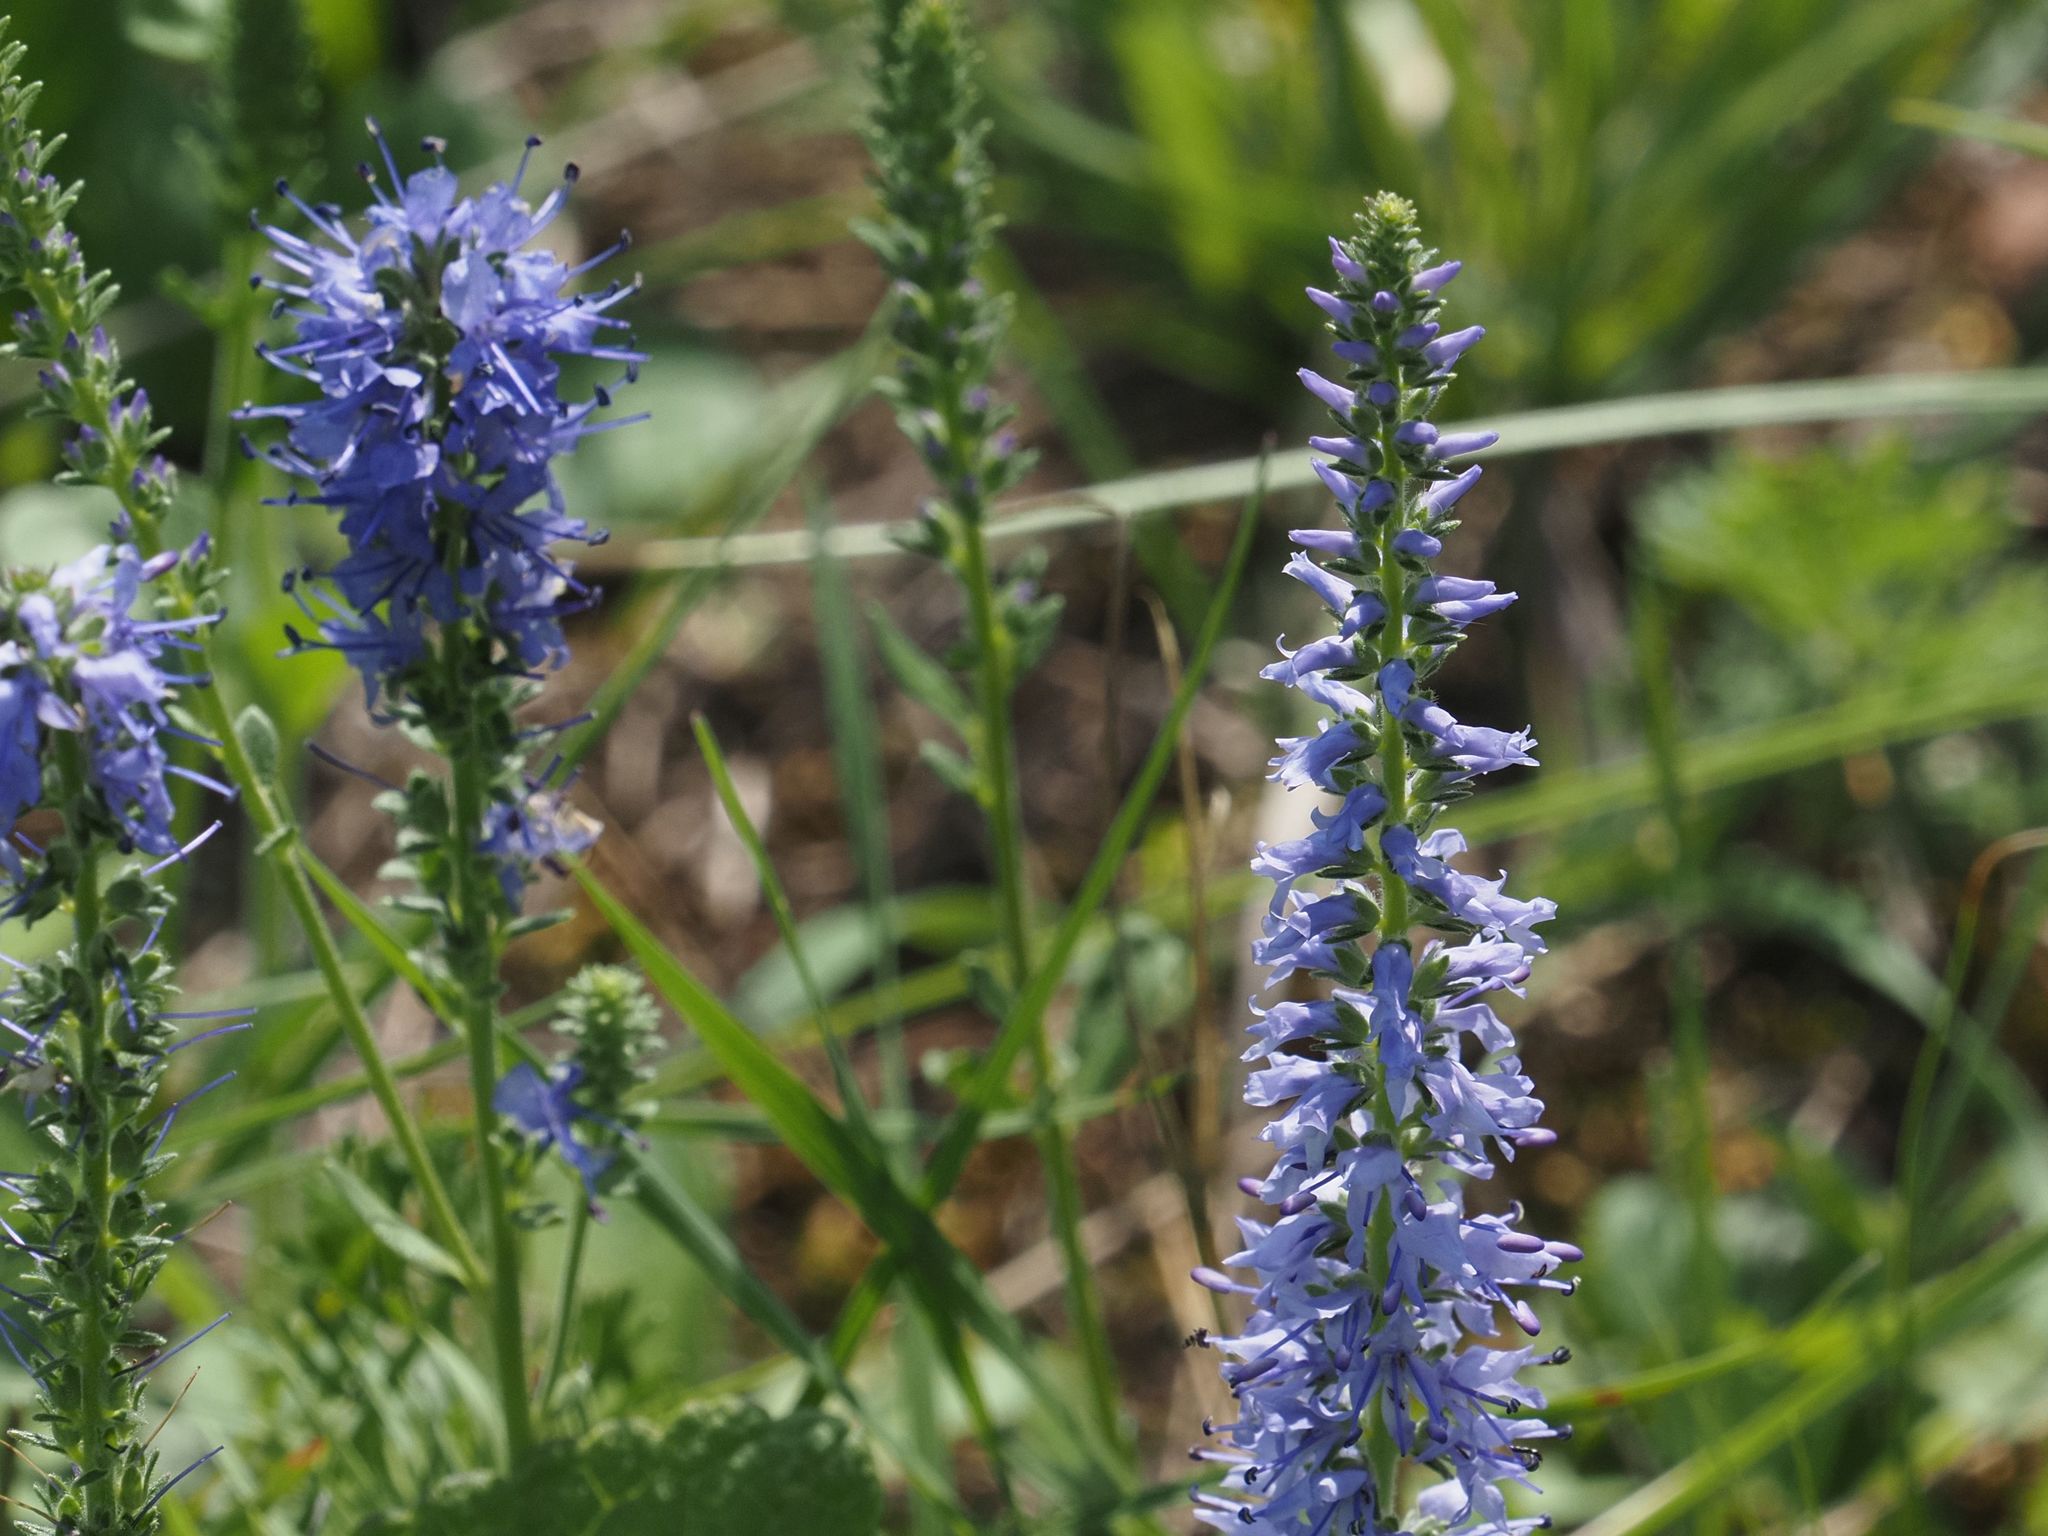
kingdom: Plantae
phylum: Tracheophyta
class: Magnoliopsida
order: Lamiales
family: Plantaginaceae
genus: Veronica
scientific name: Veronica spicata
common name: Spiked speedwell
